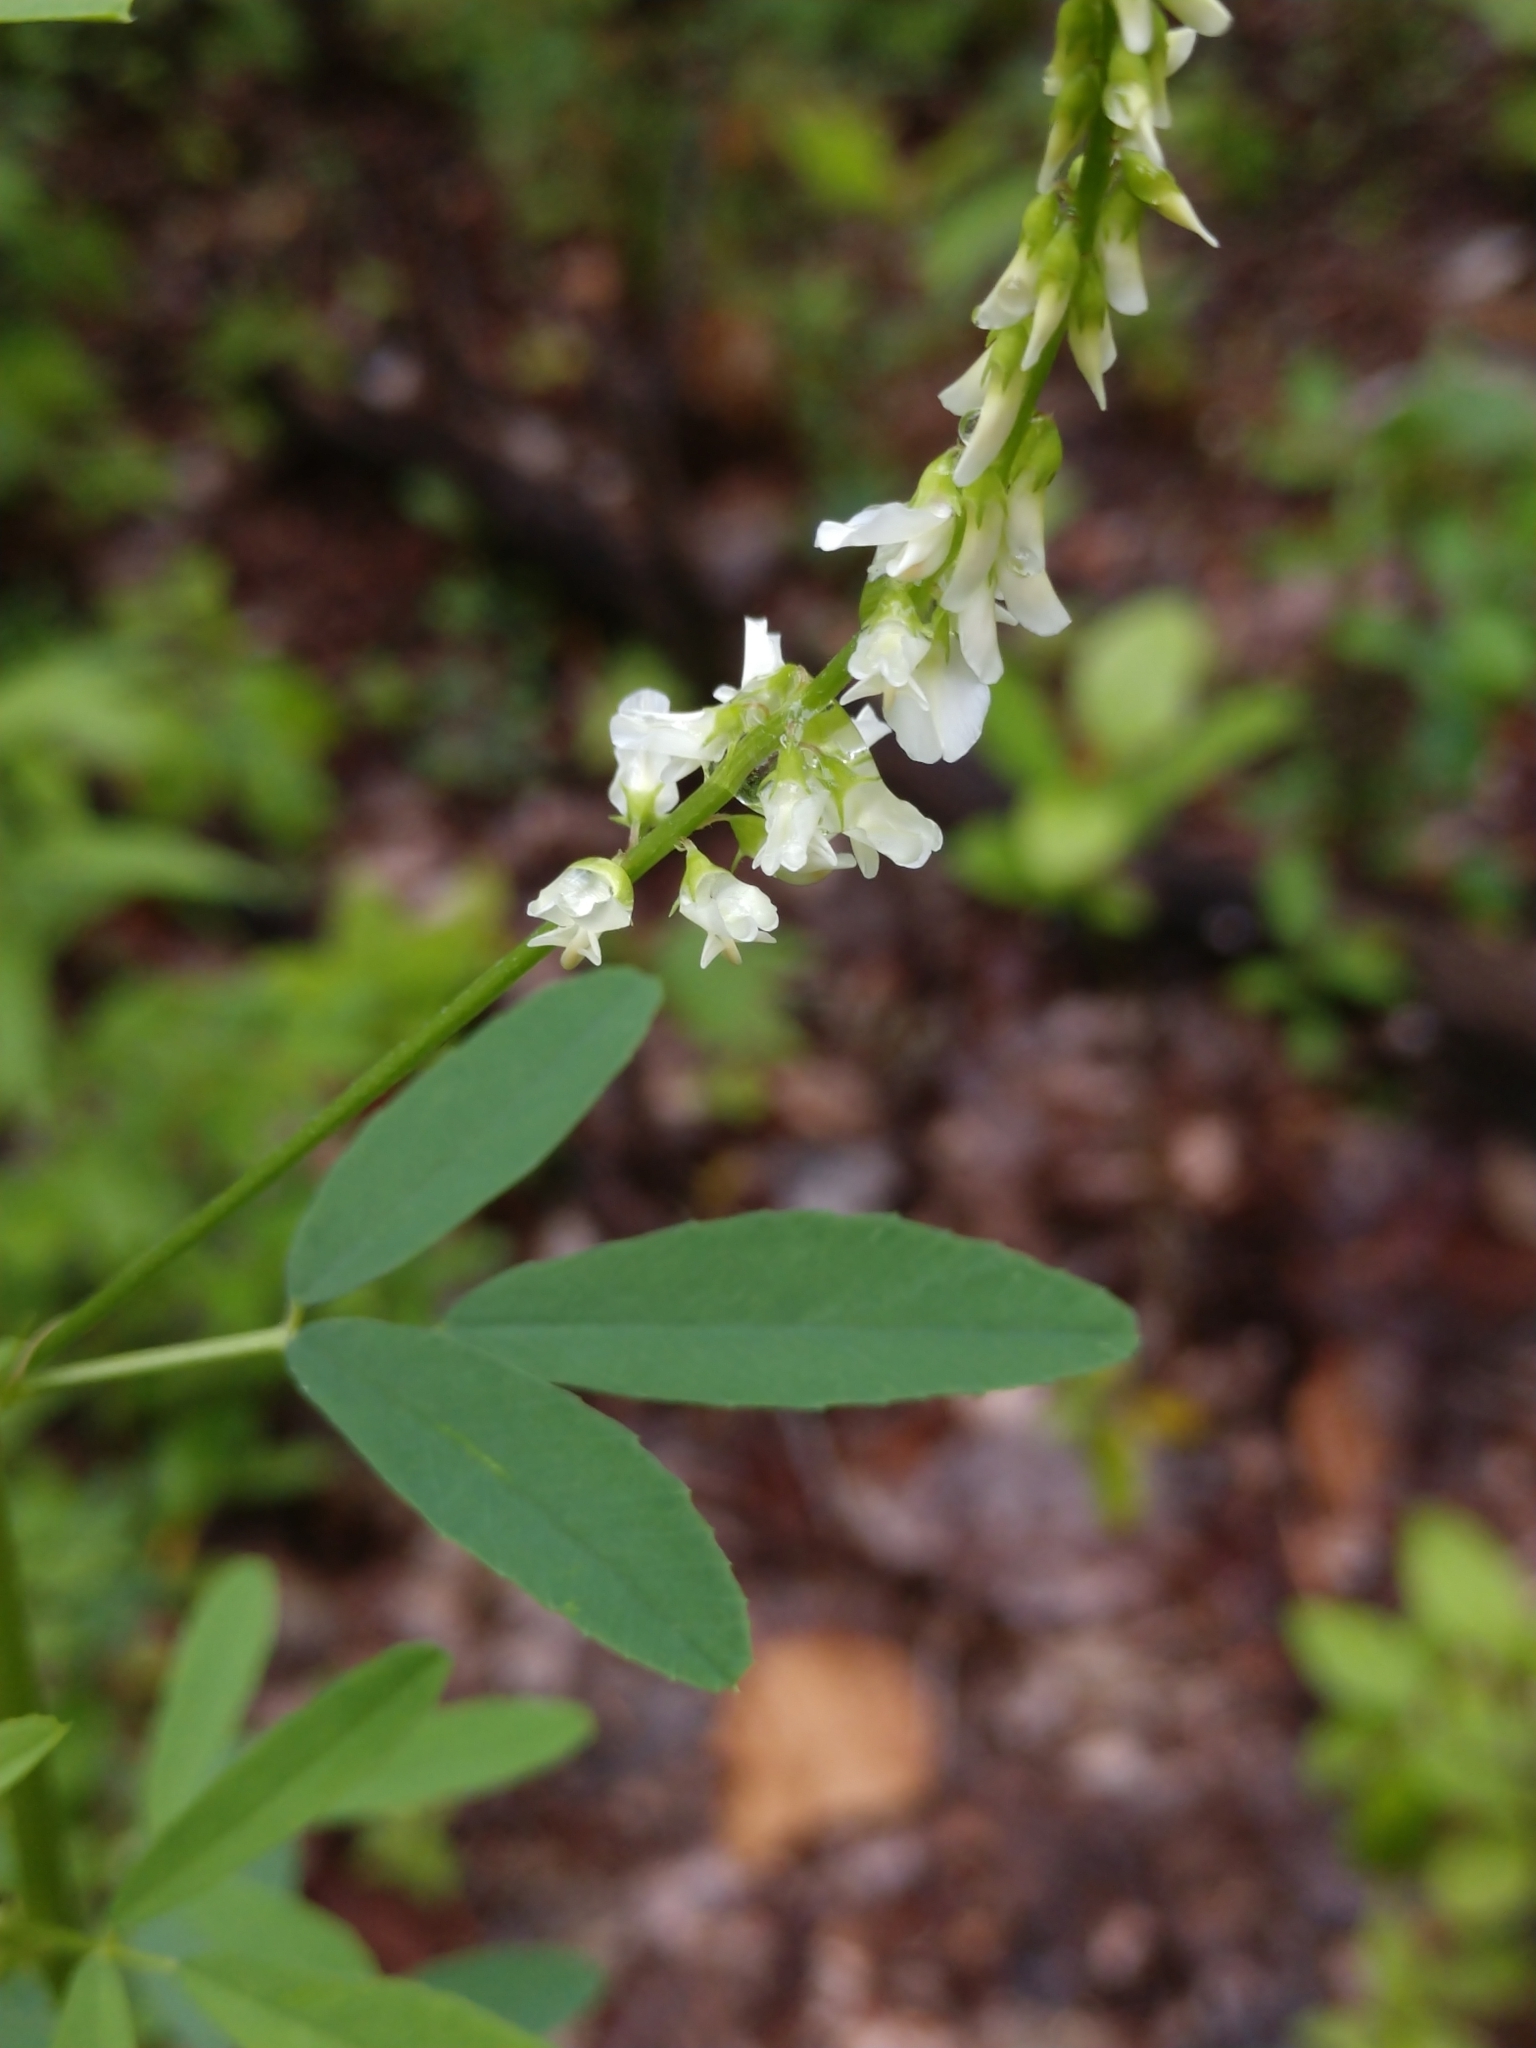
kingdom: Plantae
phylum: Tracheophyta
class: Magnoliopsida
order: Fabales
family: Fabaceae
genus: Melilotus
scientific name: Melilotus albus
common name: White melilot
